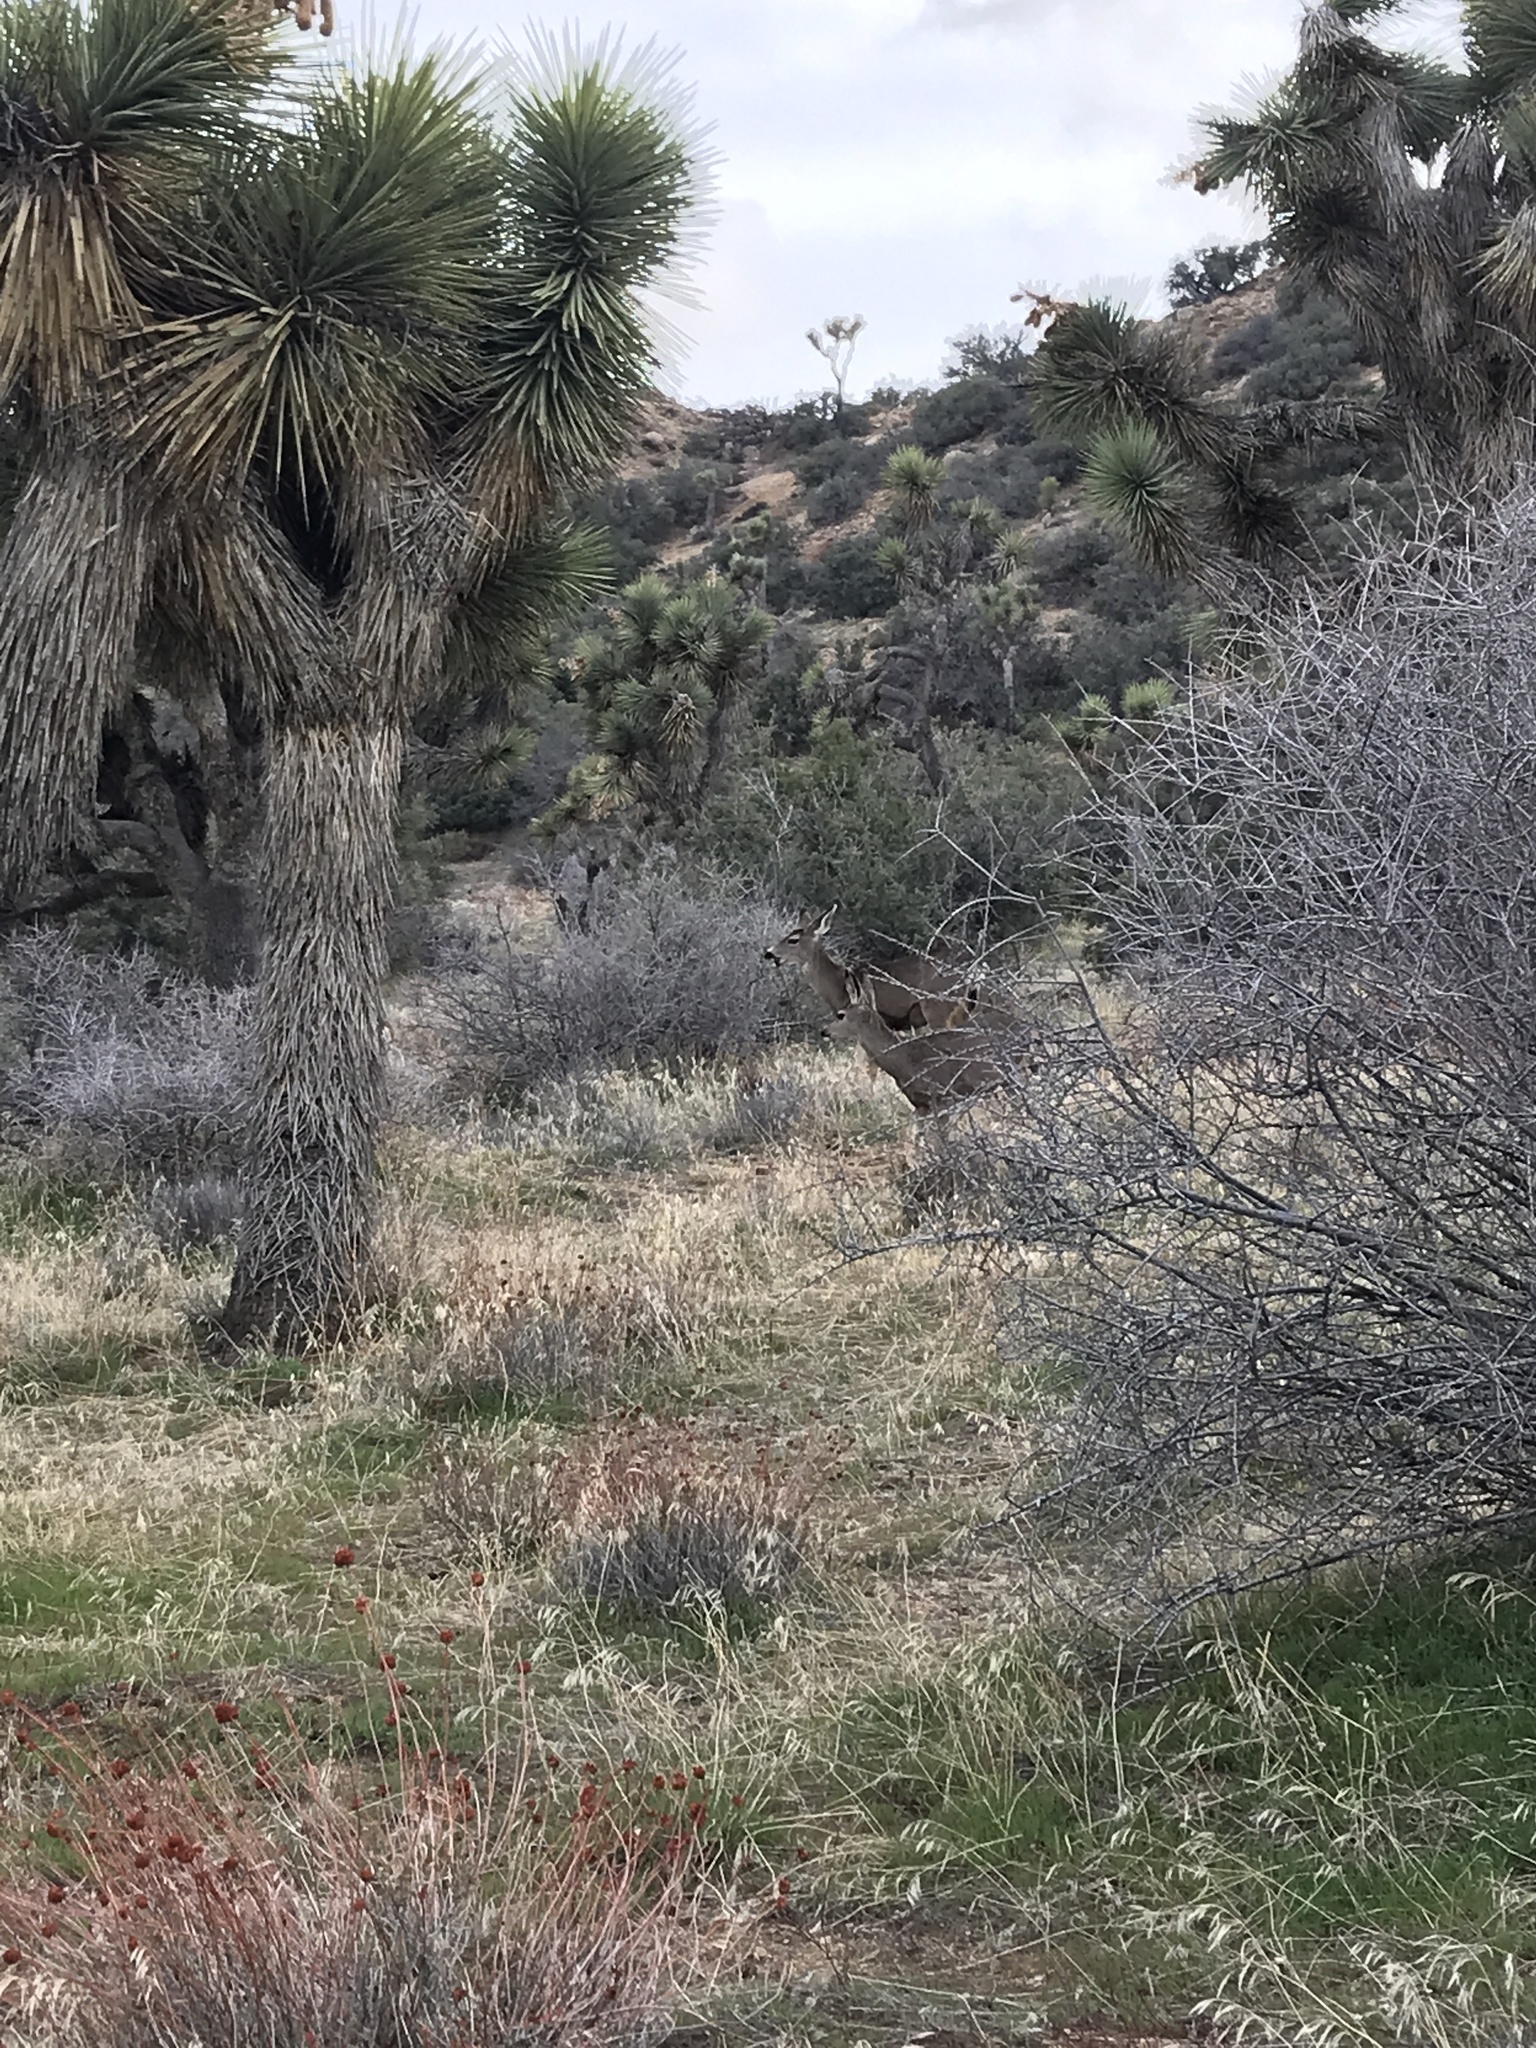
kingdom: Animalia
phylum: Chordata
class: Mammalia
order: Artiodactyla
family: Cervidae
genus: Odocoileus
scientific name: Odocoileus hemionus
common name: Mule deer
